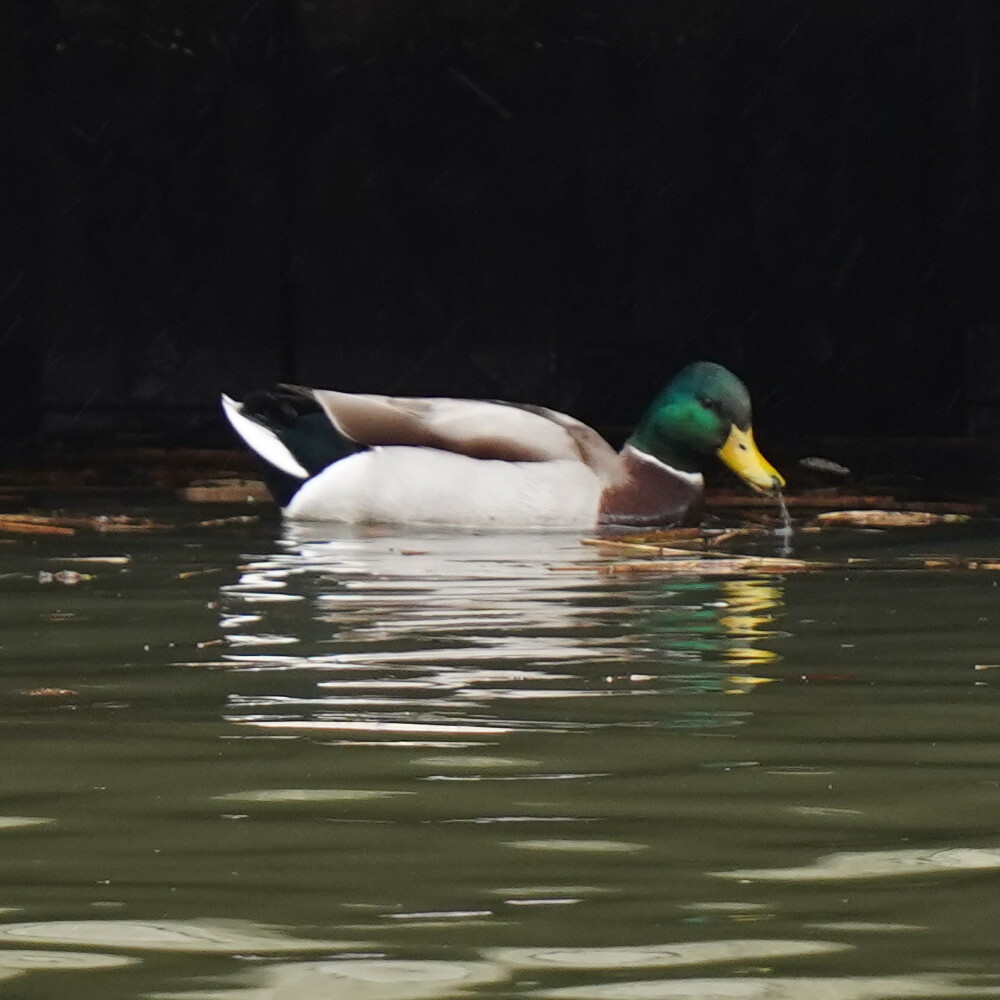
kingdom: Animalia
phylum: Chordata
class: Aves
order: Anseriformes
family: Anatidae
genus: Anas
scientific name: Anas platyrhynchos
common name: Mallard
